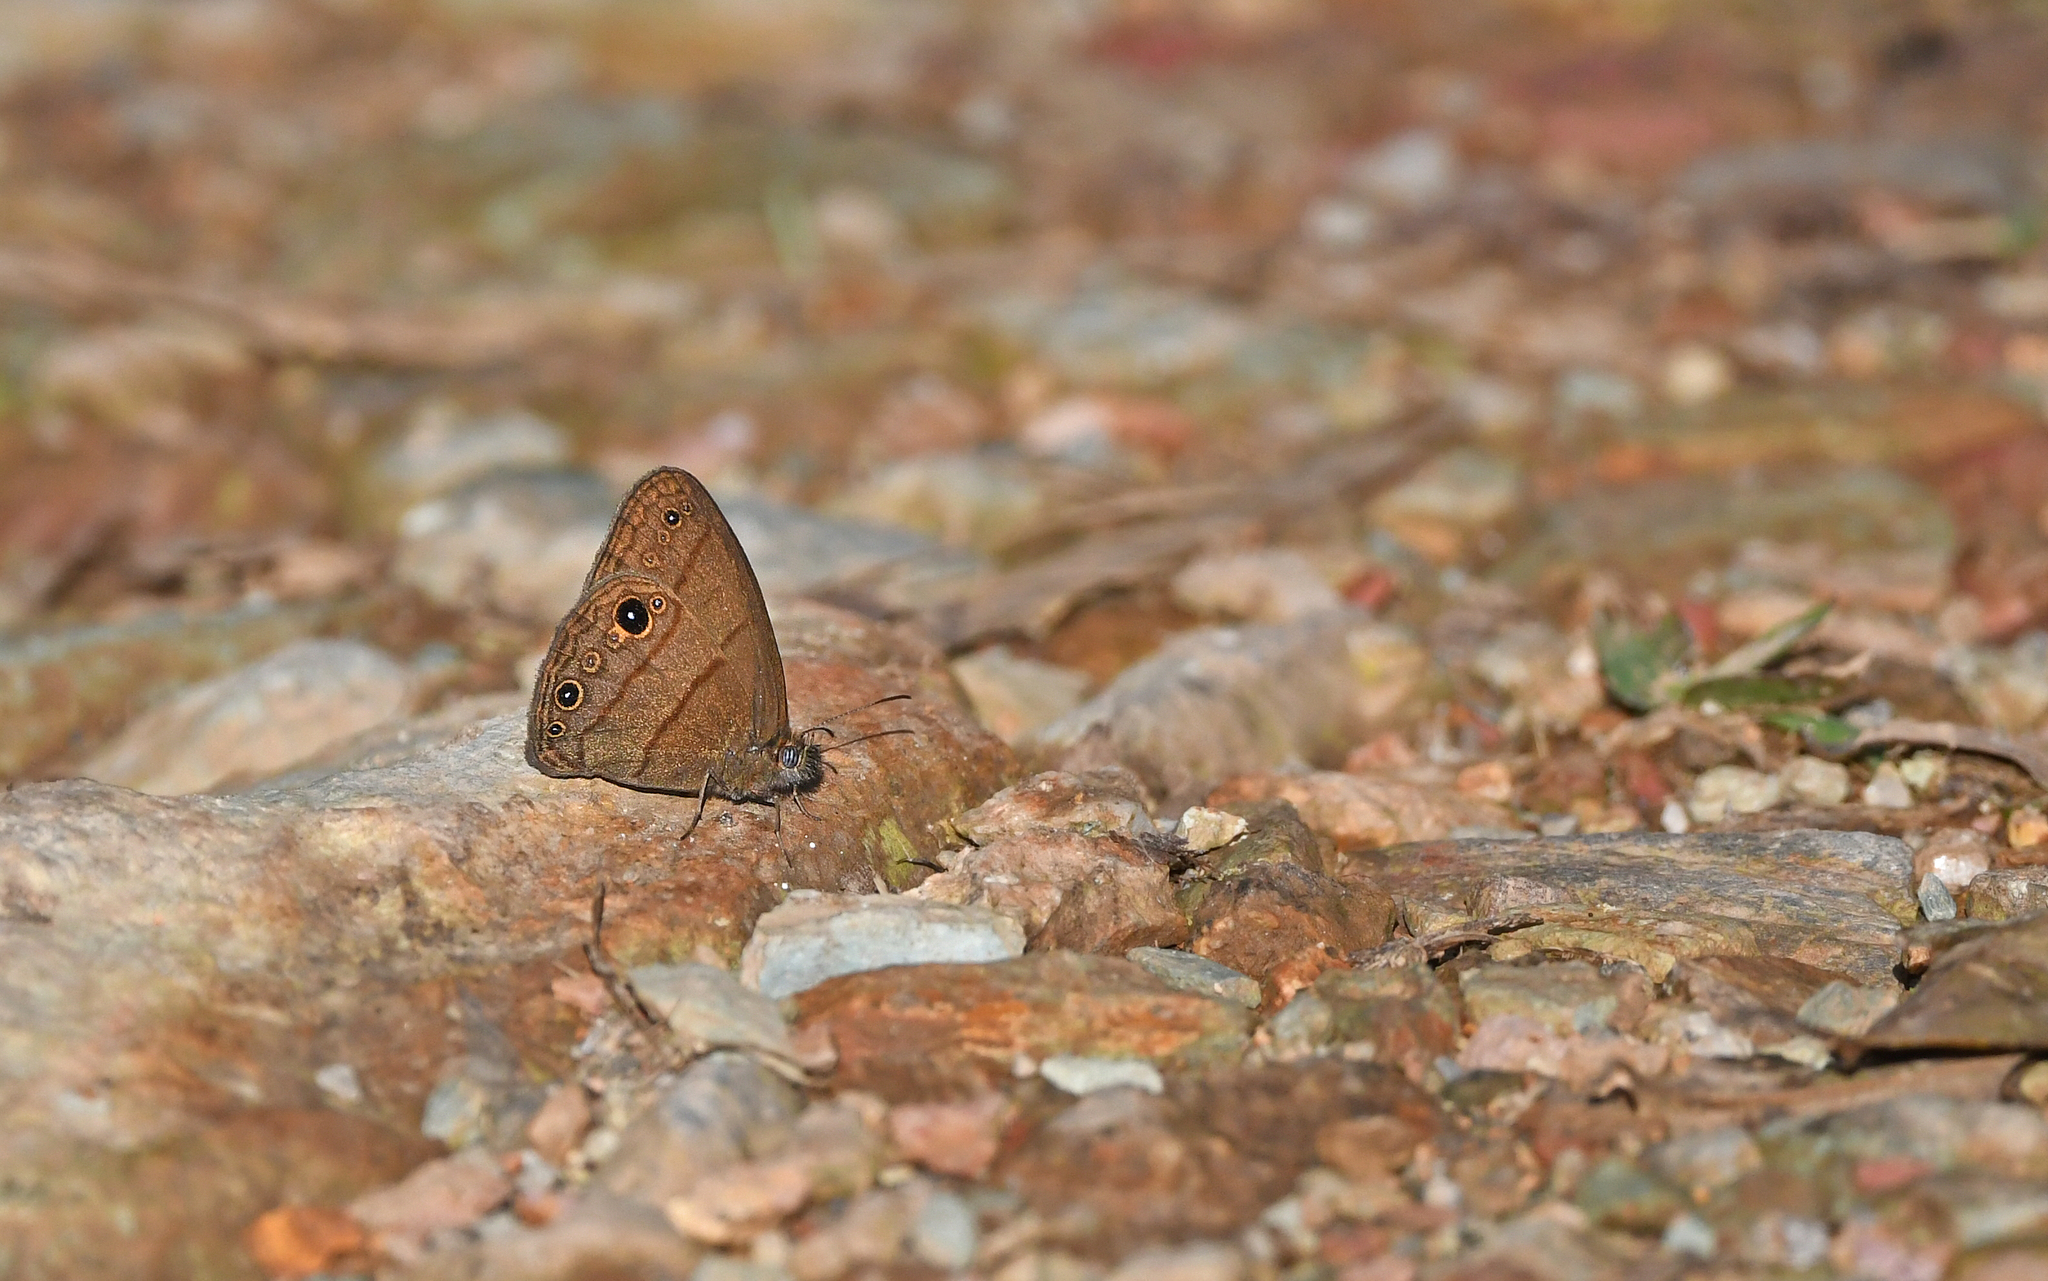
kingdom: Animalia
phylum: Arthropoda
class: Insecta
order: Lepidoptera
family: Nymphalidae
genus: Hermeuptychia
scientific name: Hermeuptychia harmonia
